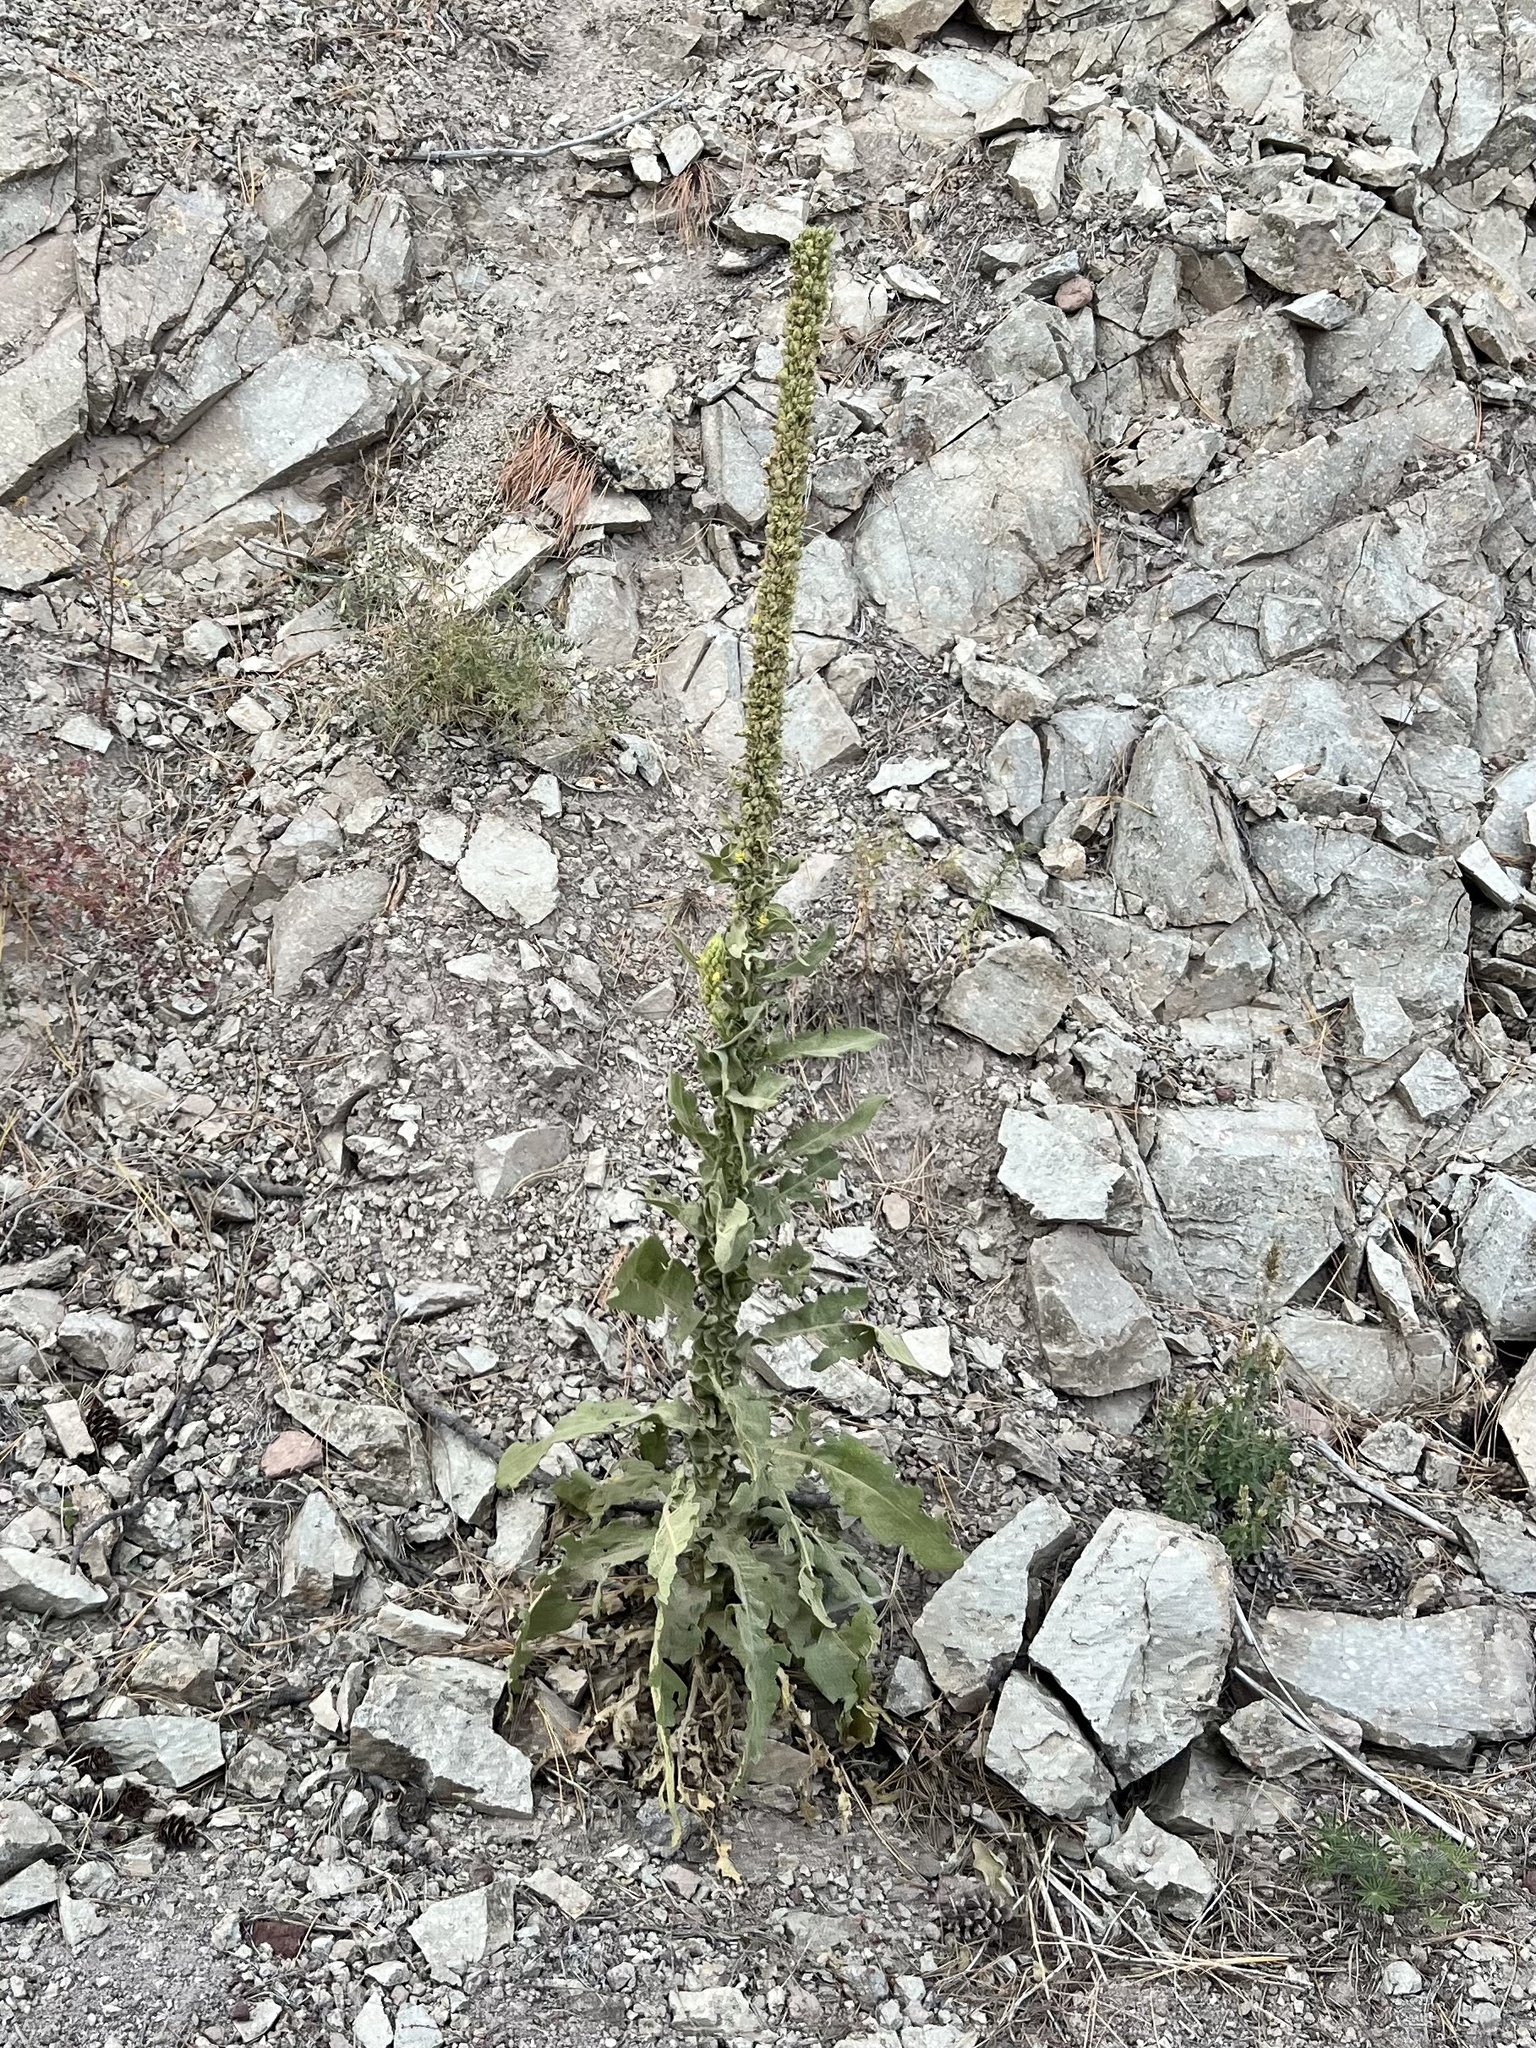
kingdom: Plantae
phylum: Tracheophyta
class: Magnoliopsida
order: Lamiales
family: Scrophulariaceae
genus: Verbascum
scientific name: Verbascum thapsus
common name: Common mullein
